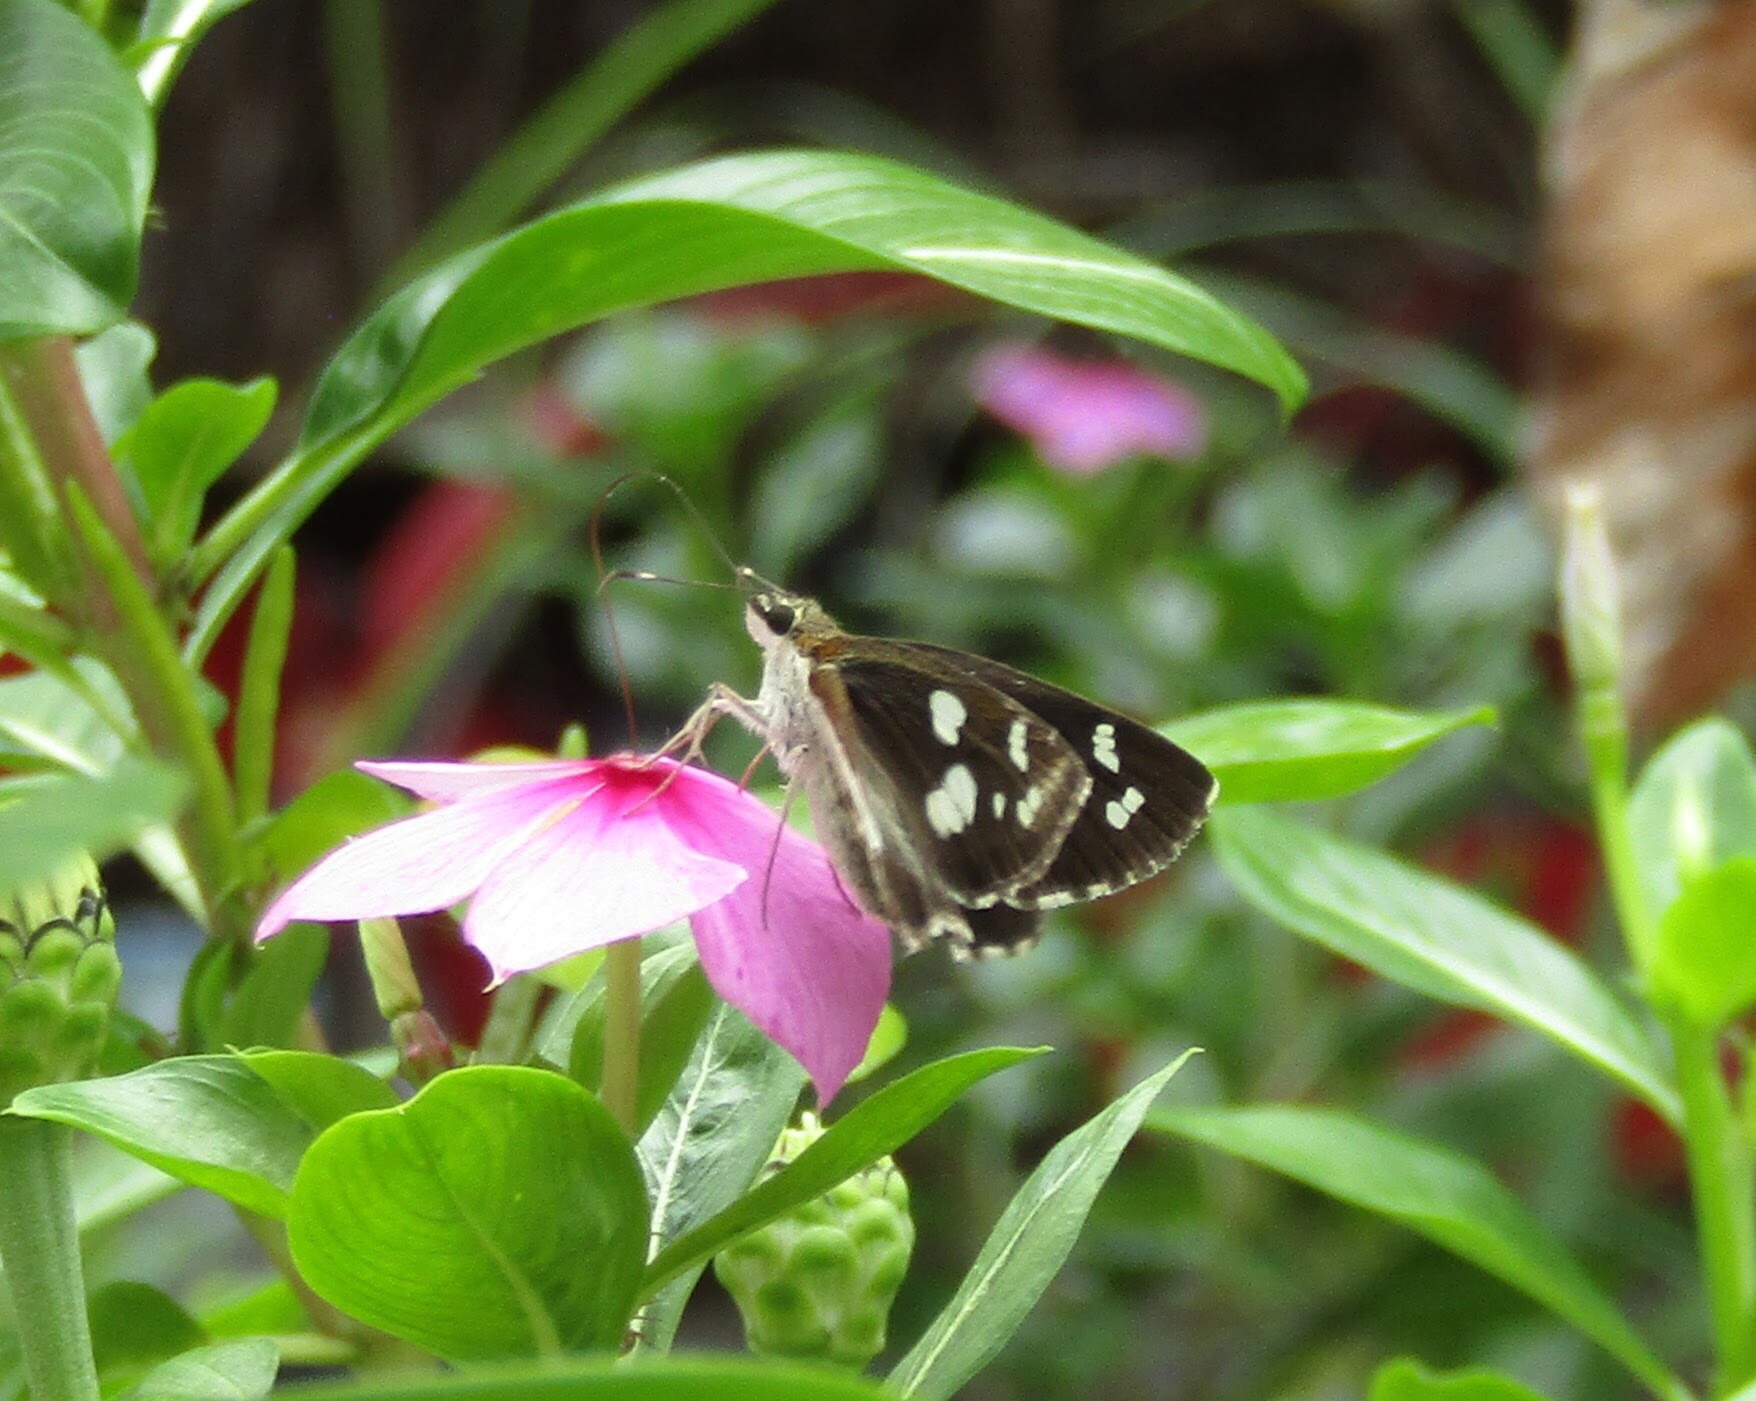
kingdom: Animalia
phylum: Arthropoda
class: Insecta
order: Lepidoptera
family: Hesperiidae
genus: Udaspes
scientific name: Udaspes folus
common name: Grass demon
